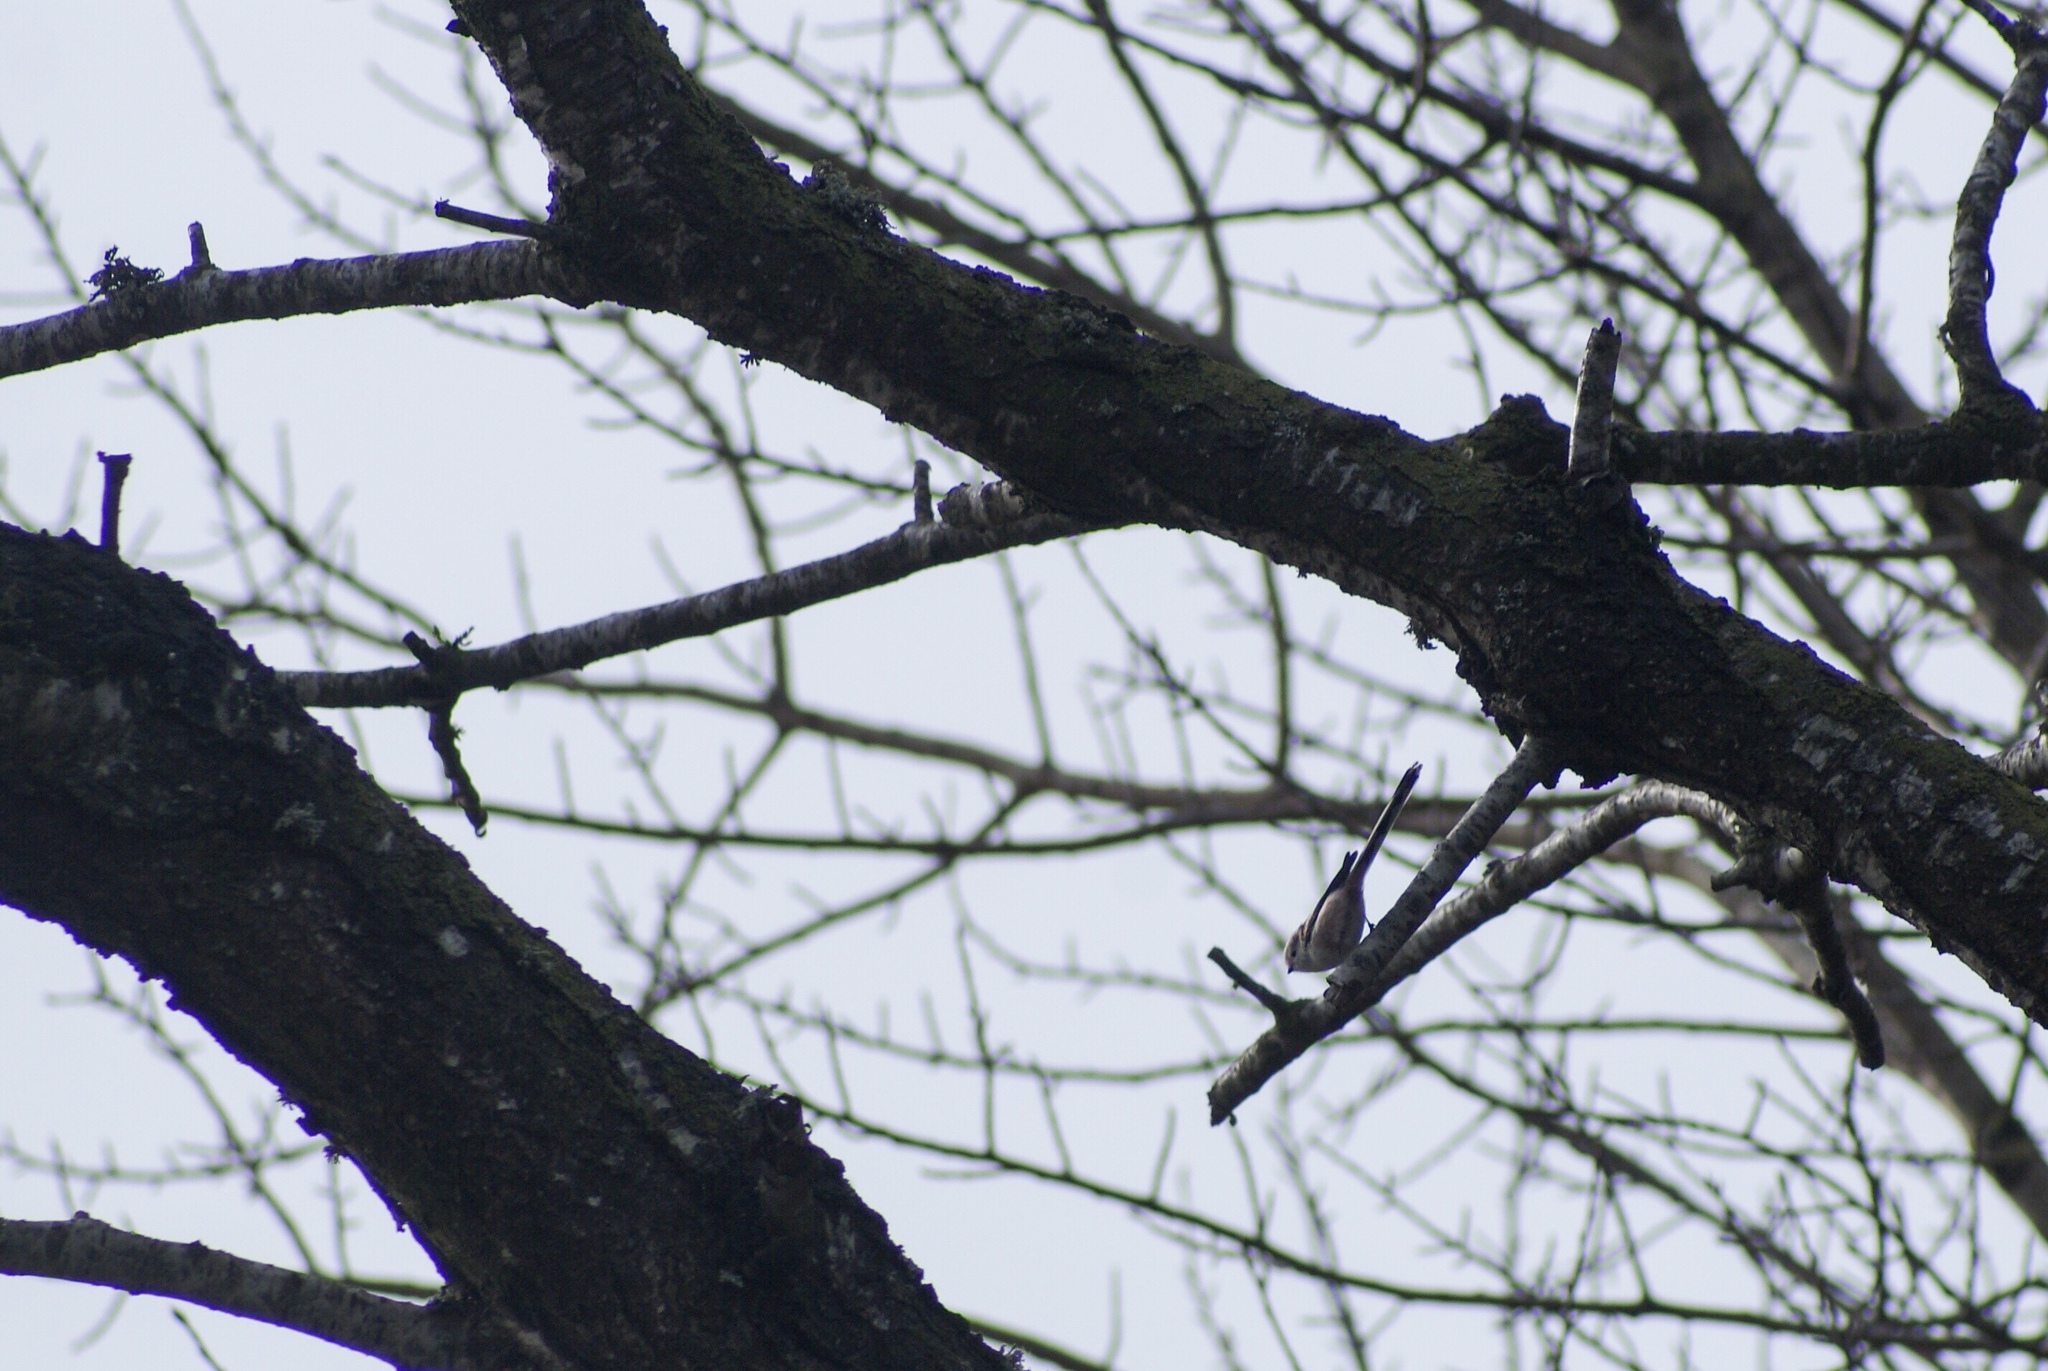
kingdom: Animalia
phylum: Chordata
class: Aves
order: Passeriformes
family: Aegithalidae
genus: Aegithalos
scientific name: Aegithalos caudatus
